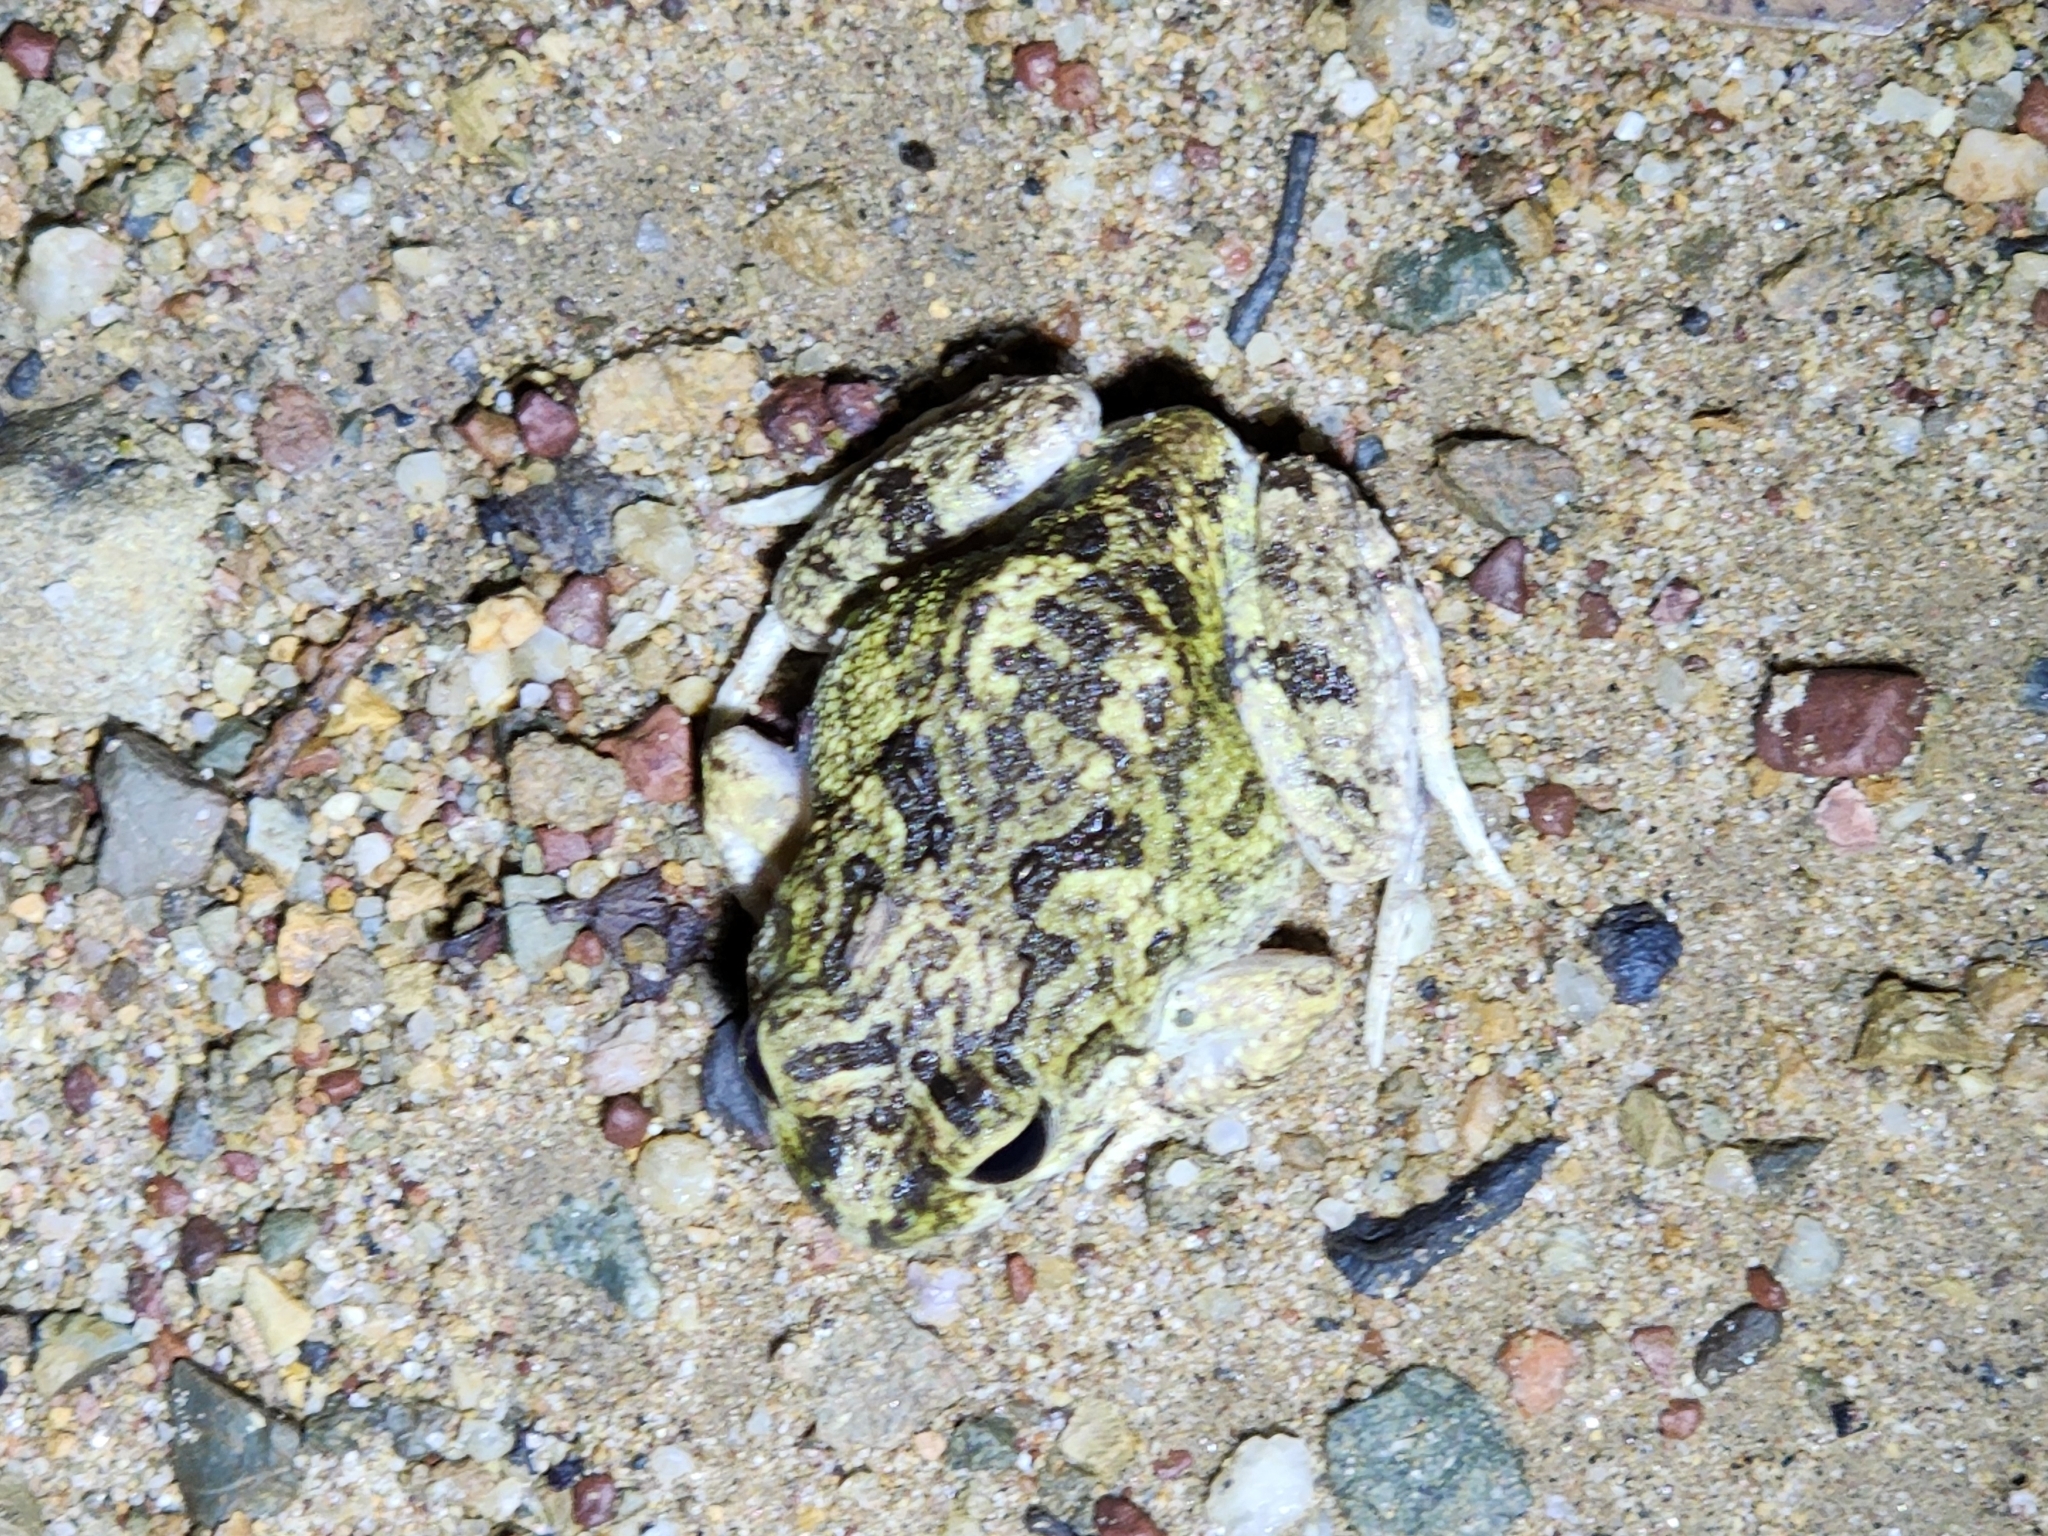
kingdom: Animalia
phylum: Chordata
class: Amphibia
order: Anura
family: Limnodynastidae
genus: Platyplectrum
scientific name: Platyplectrum ornatum
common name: Ornate burrowing frog
